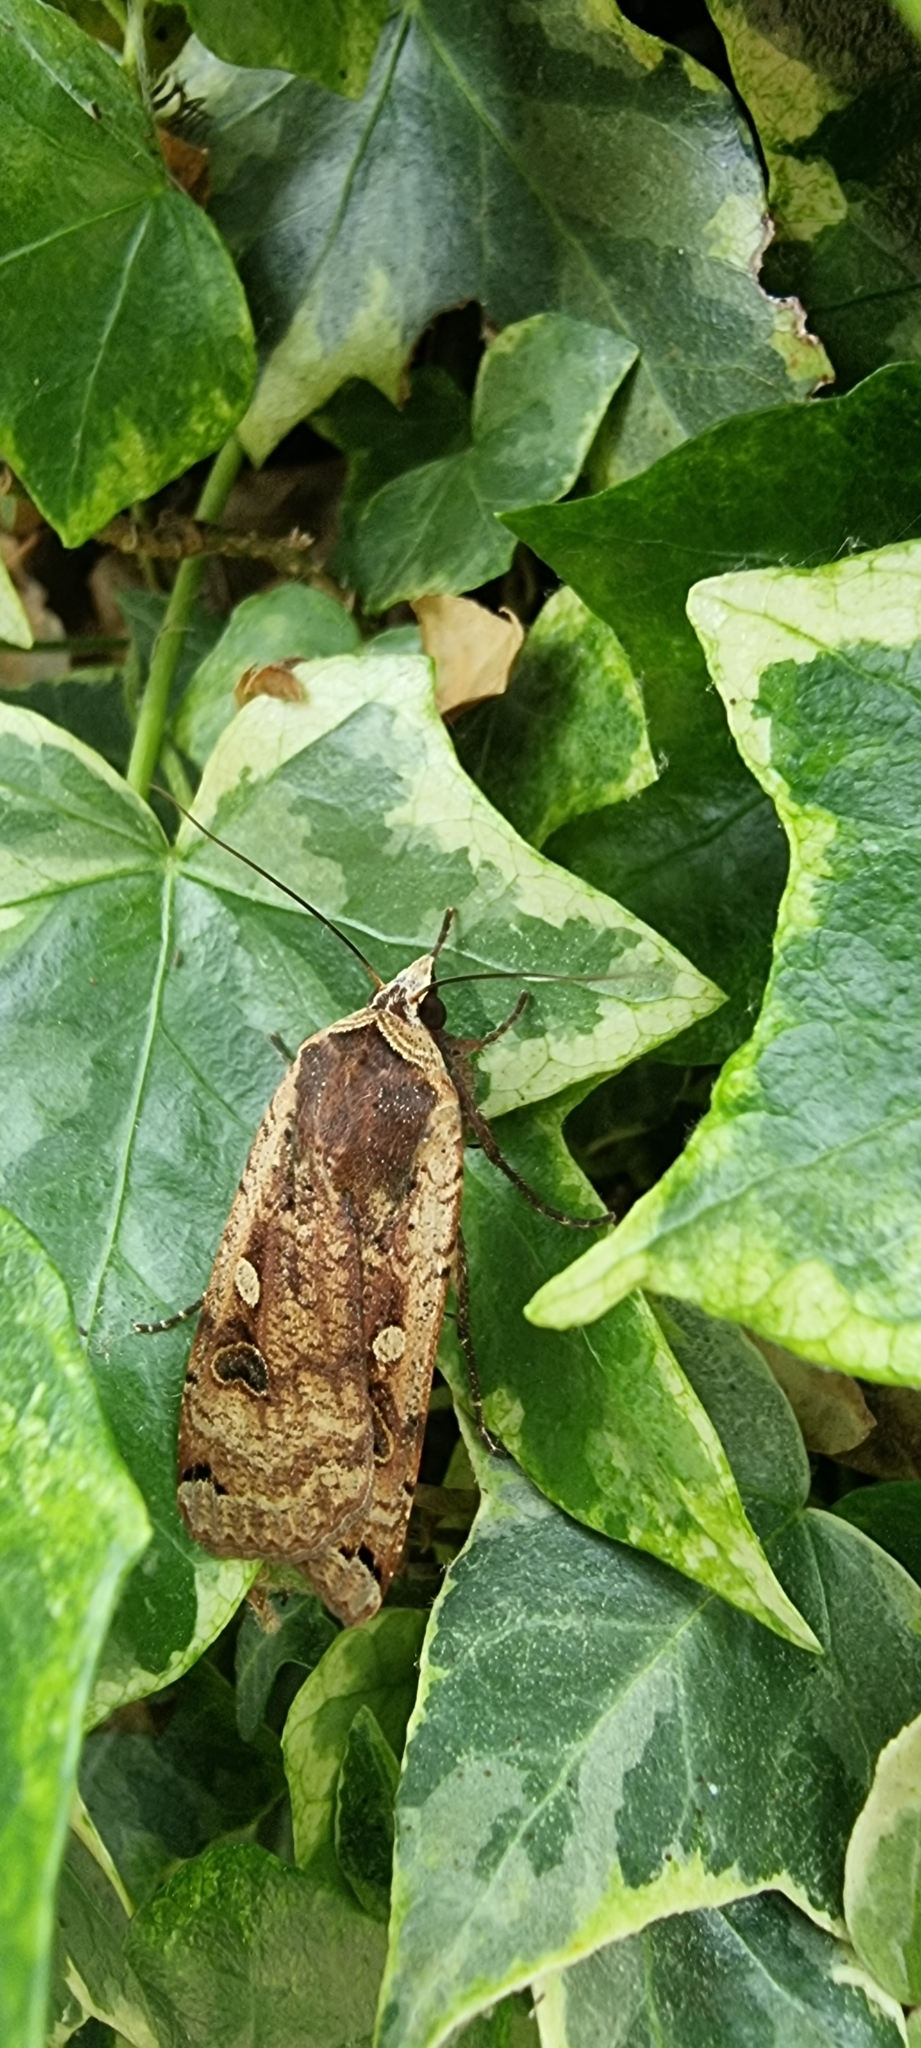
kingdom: Animalia
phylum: Arthropoda
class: Insecta
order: Lepidoptera
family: Noctuidae
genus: Noctua
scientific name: Noctua pronuba
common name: Large yellow underwing
